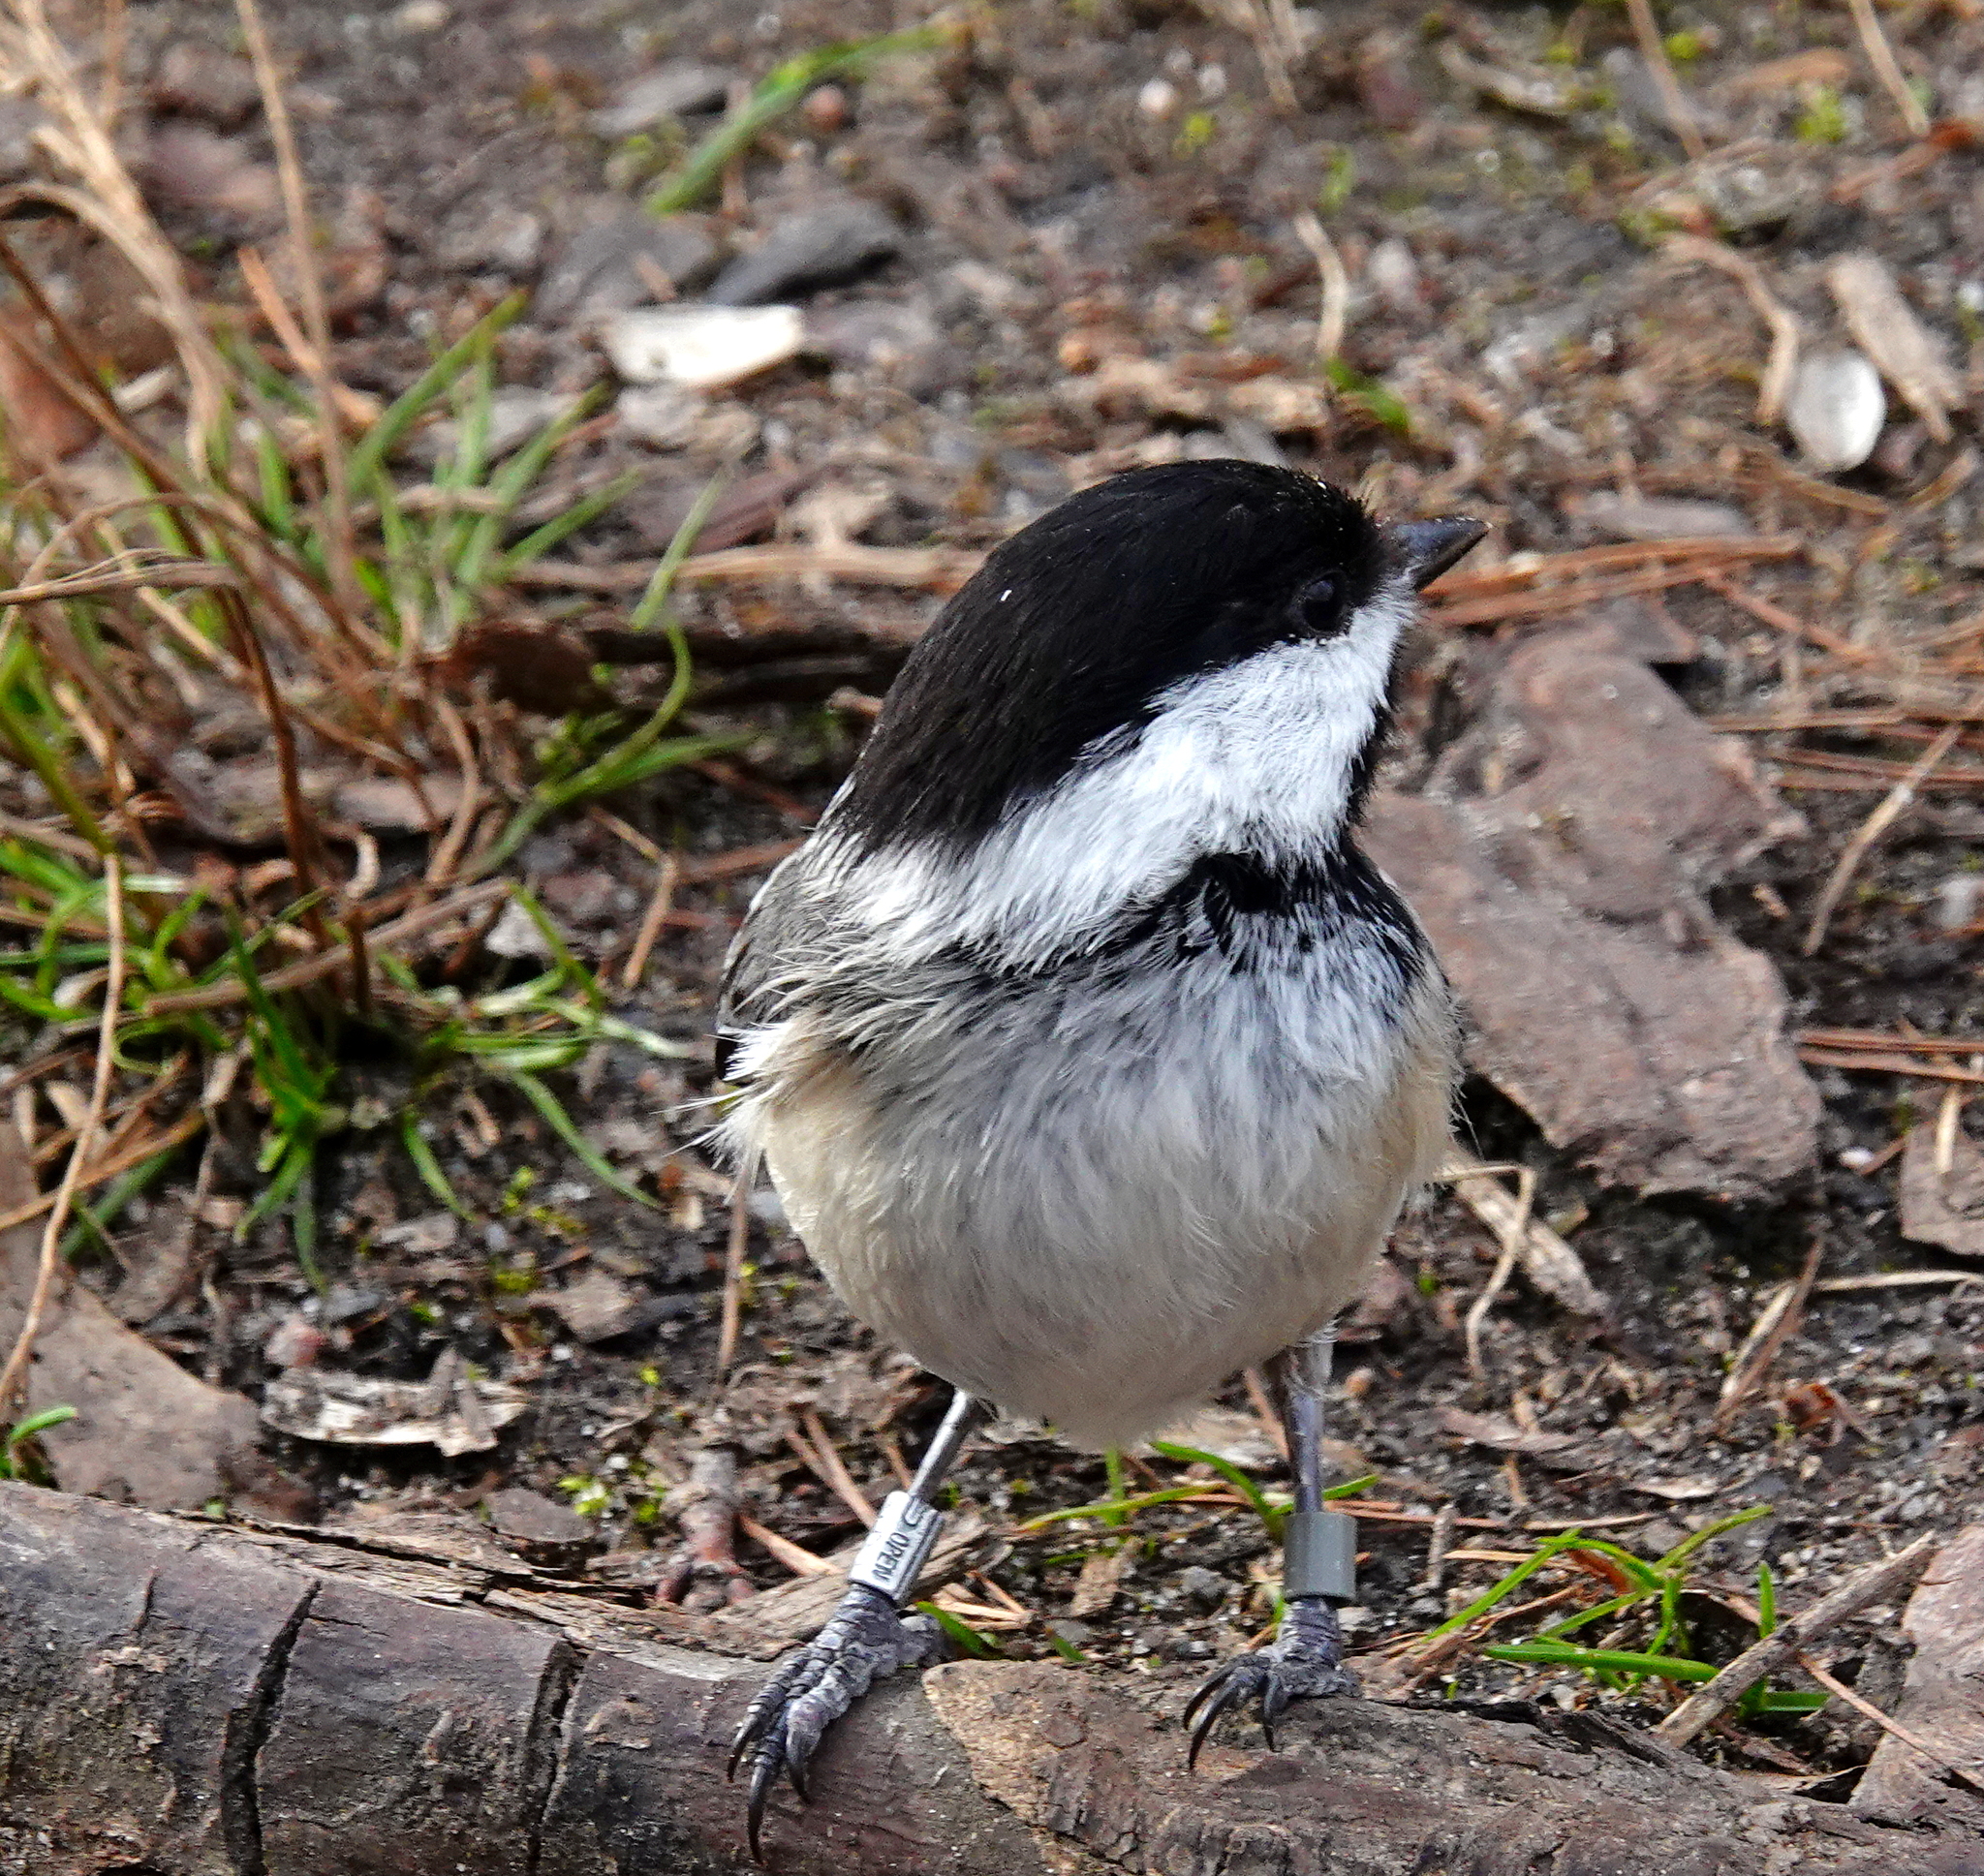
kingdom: Animalia
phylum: Chordata
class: Aves
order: Passeriformes
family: Paridae
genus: Poecile
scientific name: Poecile atricapillus
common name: Black-capped chickadee
